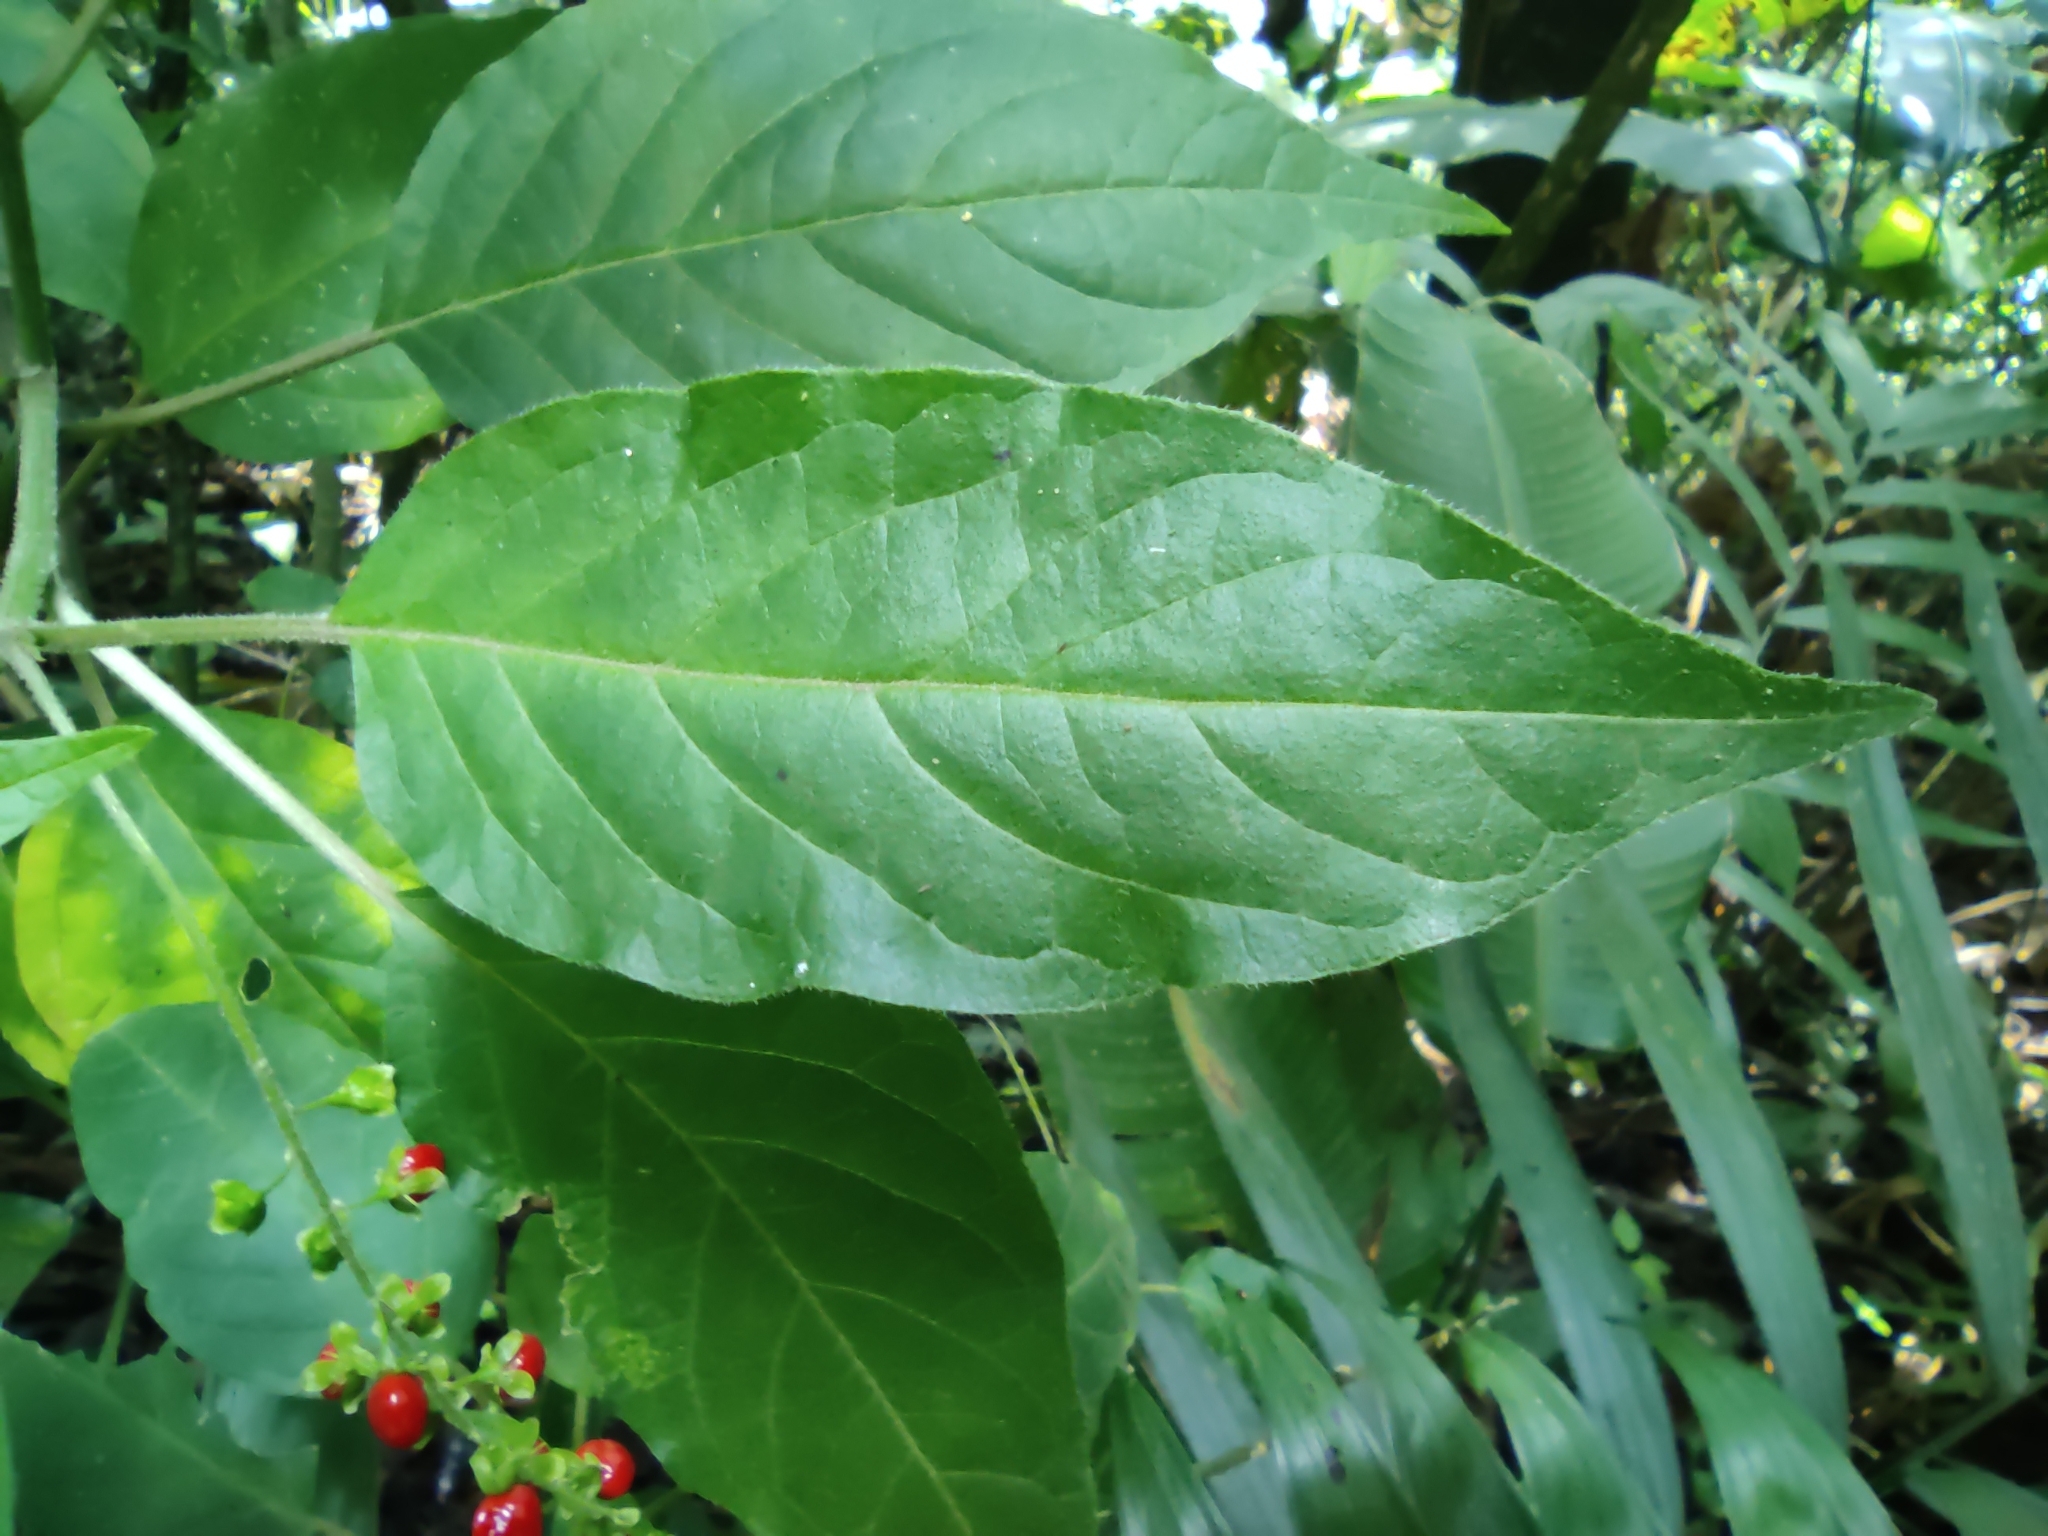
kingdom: Plantae
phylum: Tracheophyta
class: Magnoliopsida
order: Caryophyllales
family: Phytolaccaceae
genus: Rivina
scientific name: Rivina humilis
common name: Rougeplant
